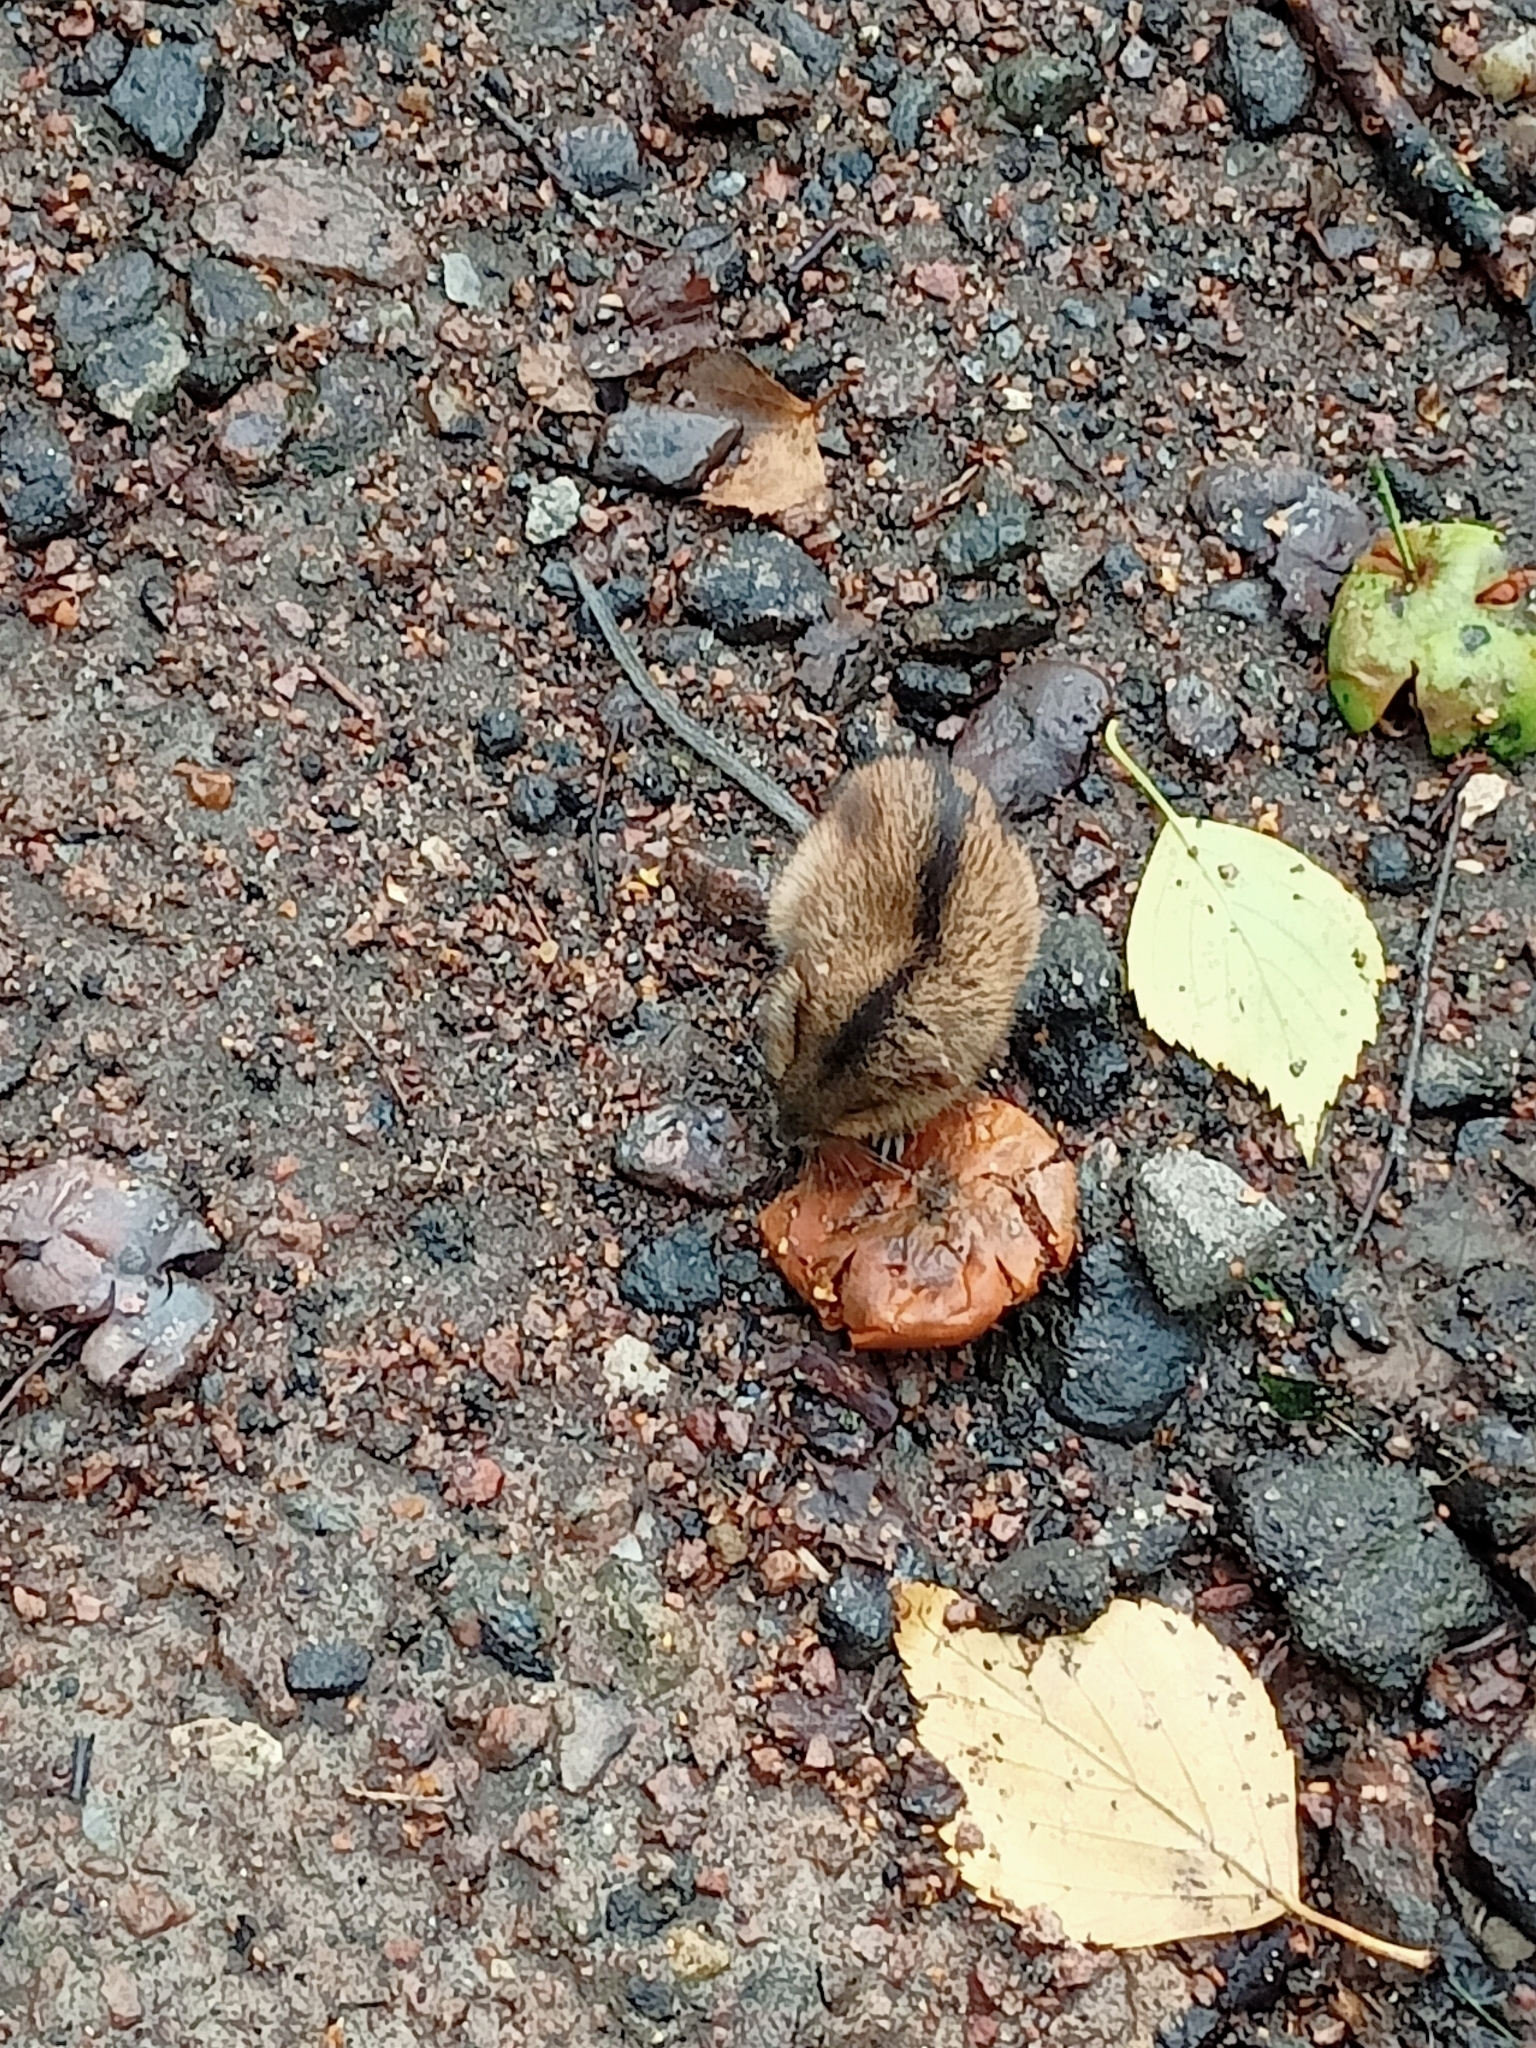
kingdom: Animalia
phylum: Chordata
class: Mammalia
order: Rodentia
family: Muridae
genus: Apodemus
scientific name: Apodemus agrarius
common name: Striped field mouse
